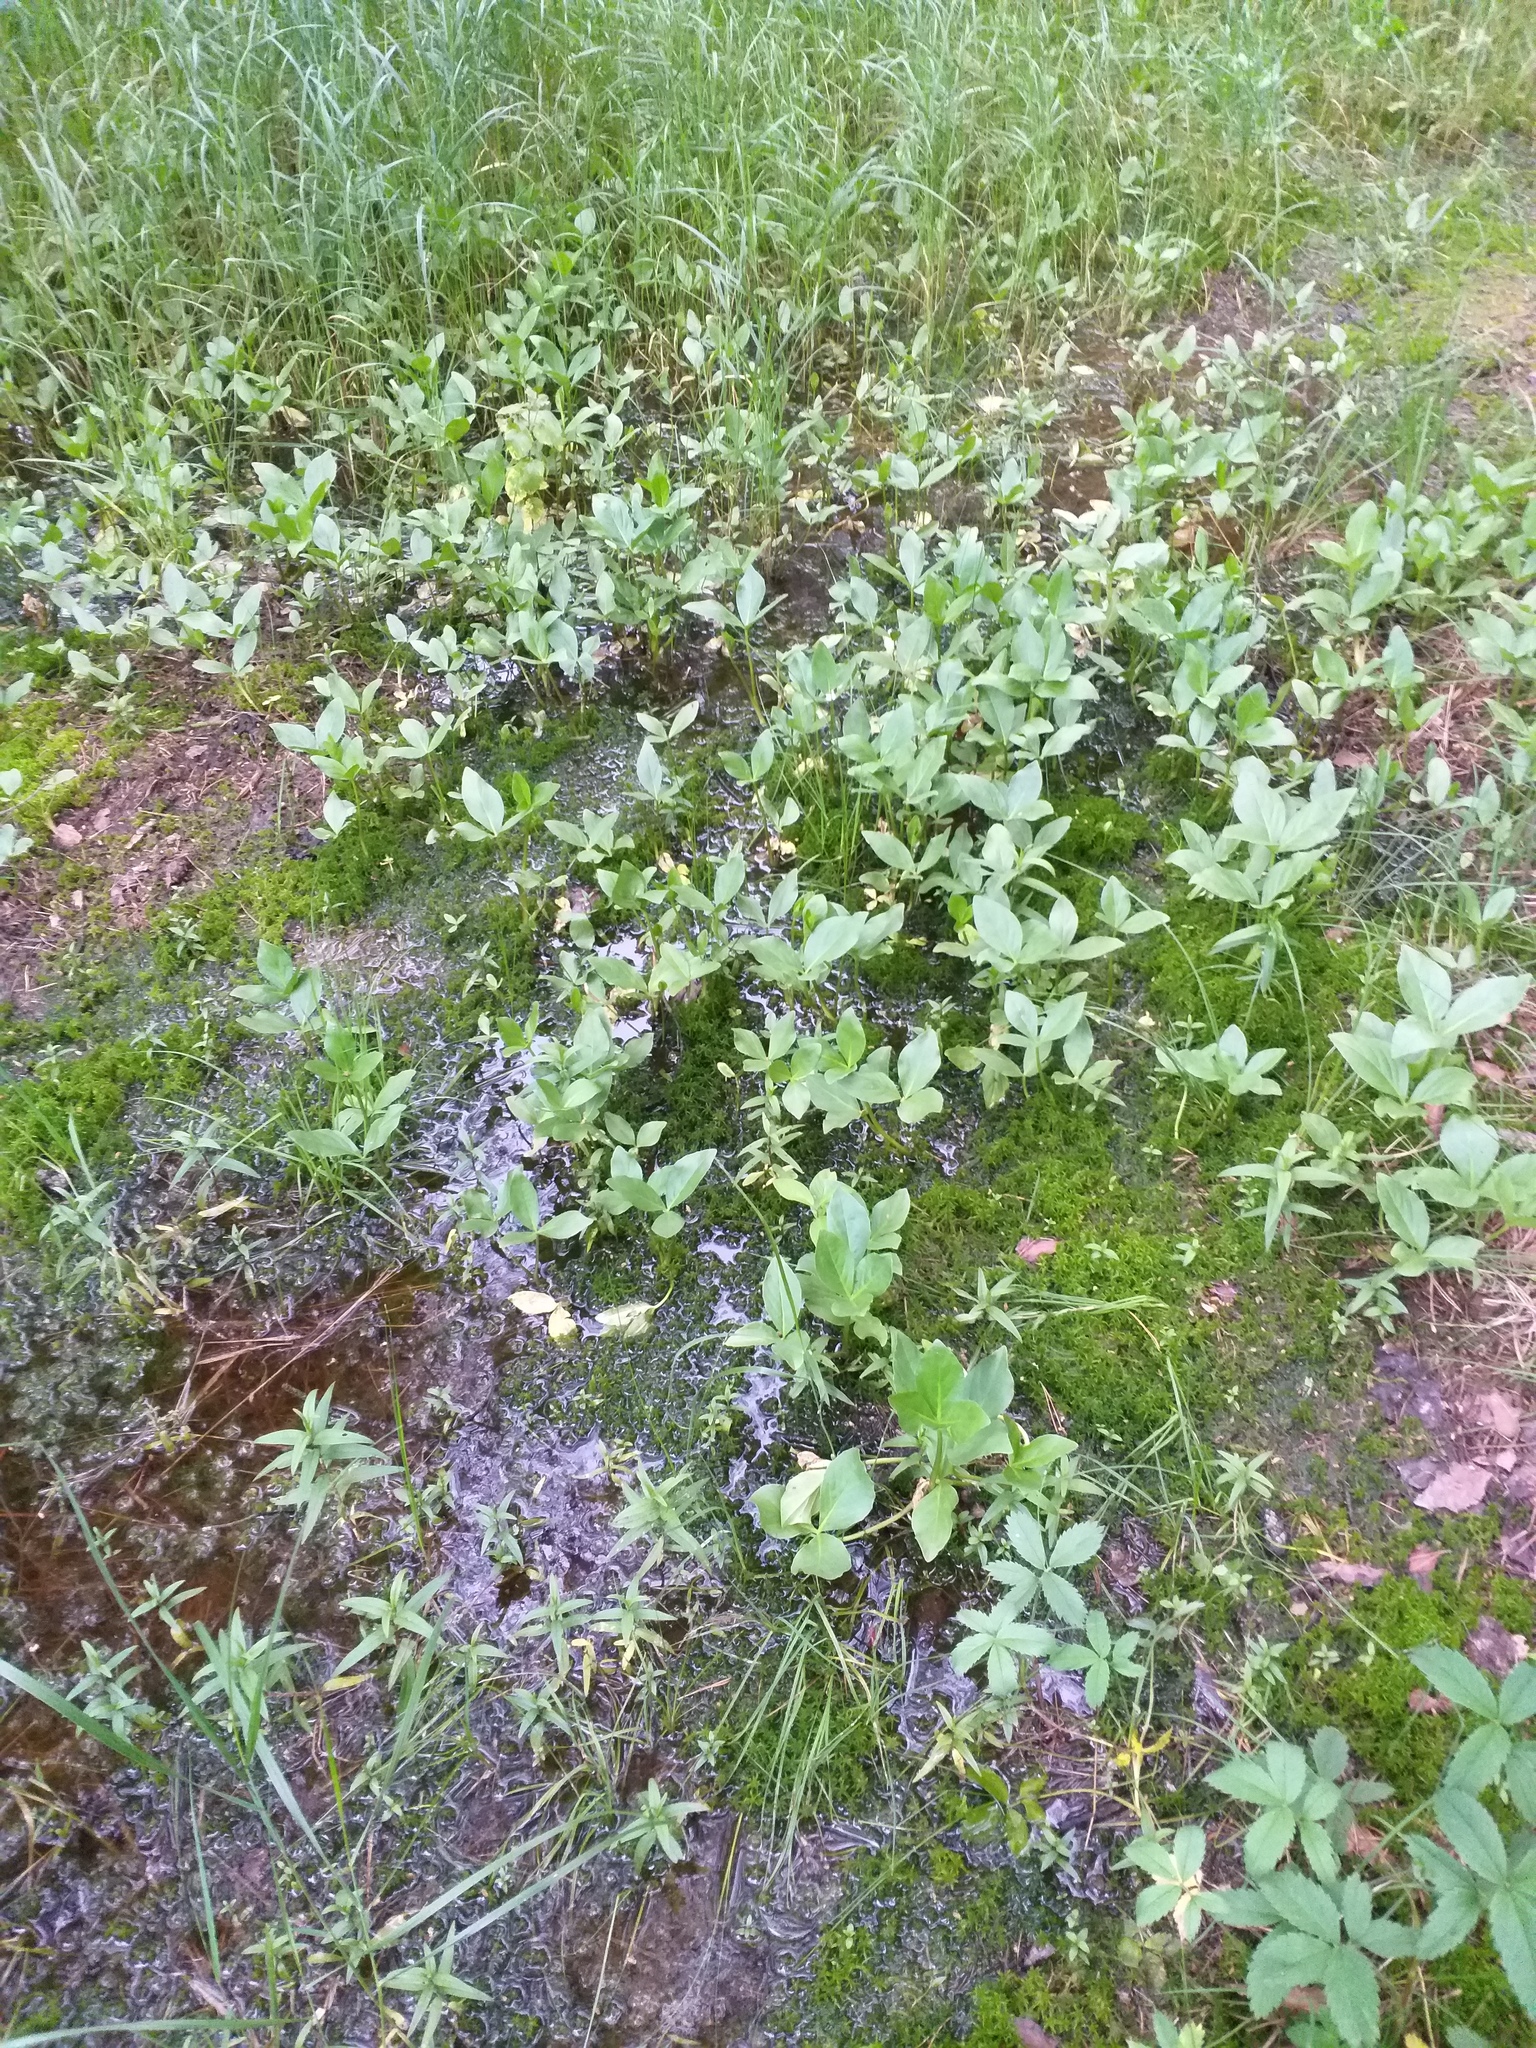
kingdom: Plantae
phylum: Tracheophyta
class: Magnoliopsida
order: Asterales
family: Menyanthaceae
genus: Menyanthes
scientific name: Menyanthes trifoliata
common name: Bogbean
